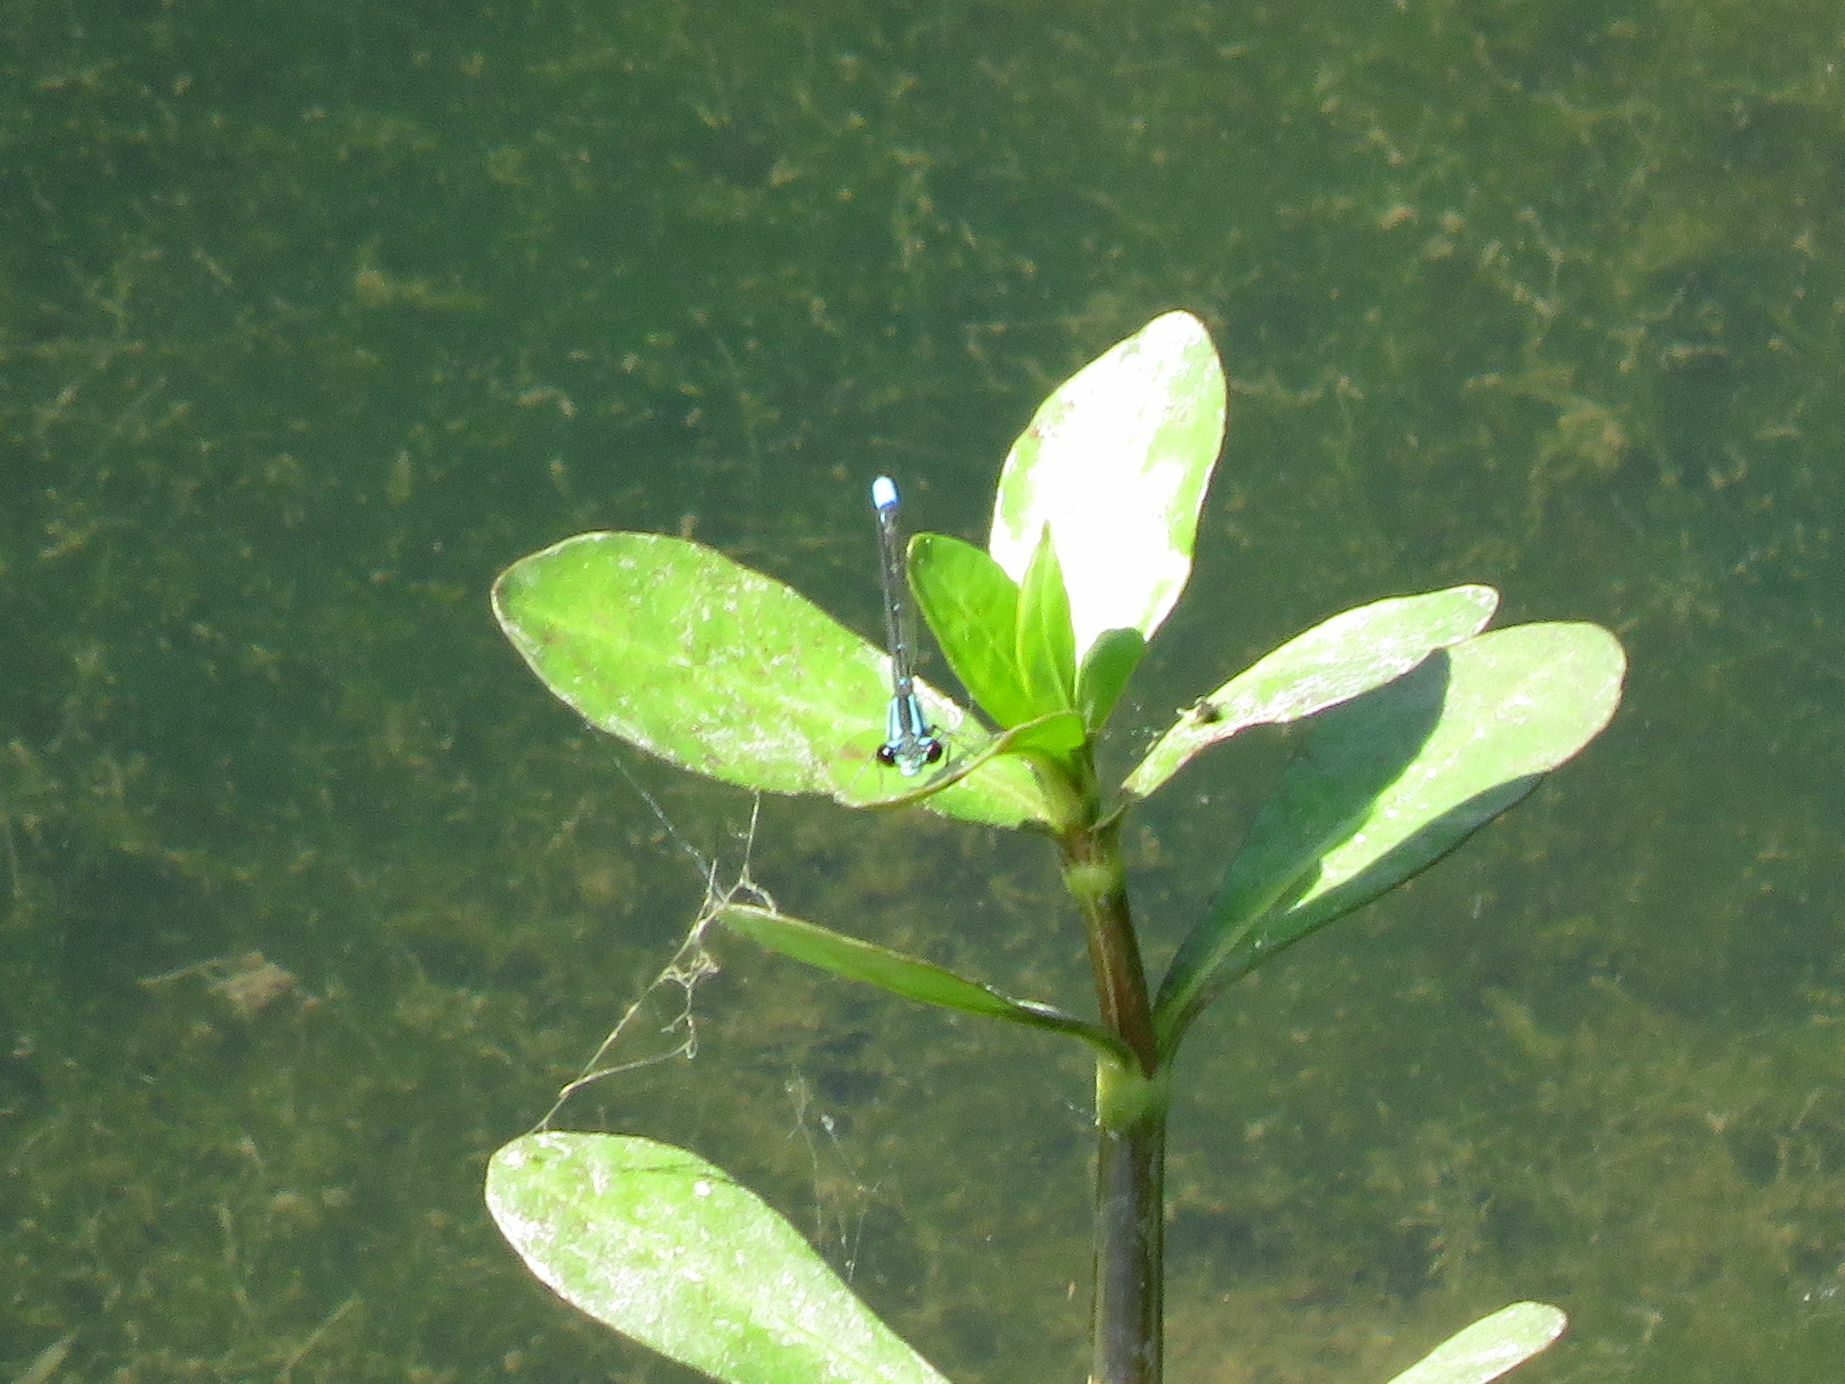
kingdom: Animalia
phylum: Arthropoda
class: Insecta
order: Odonata
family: Coenagrionidae
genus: Acanthagrion
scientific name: Acanthagrion lancea
